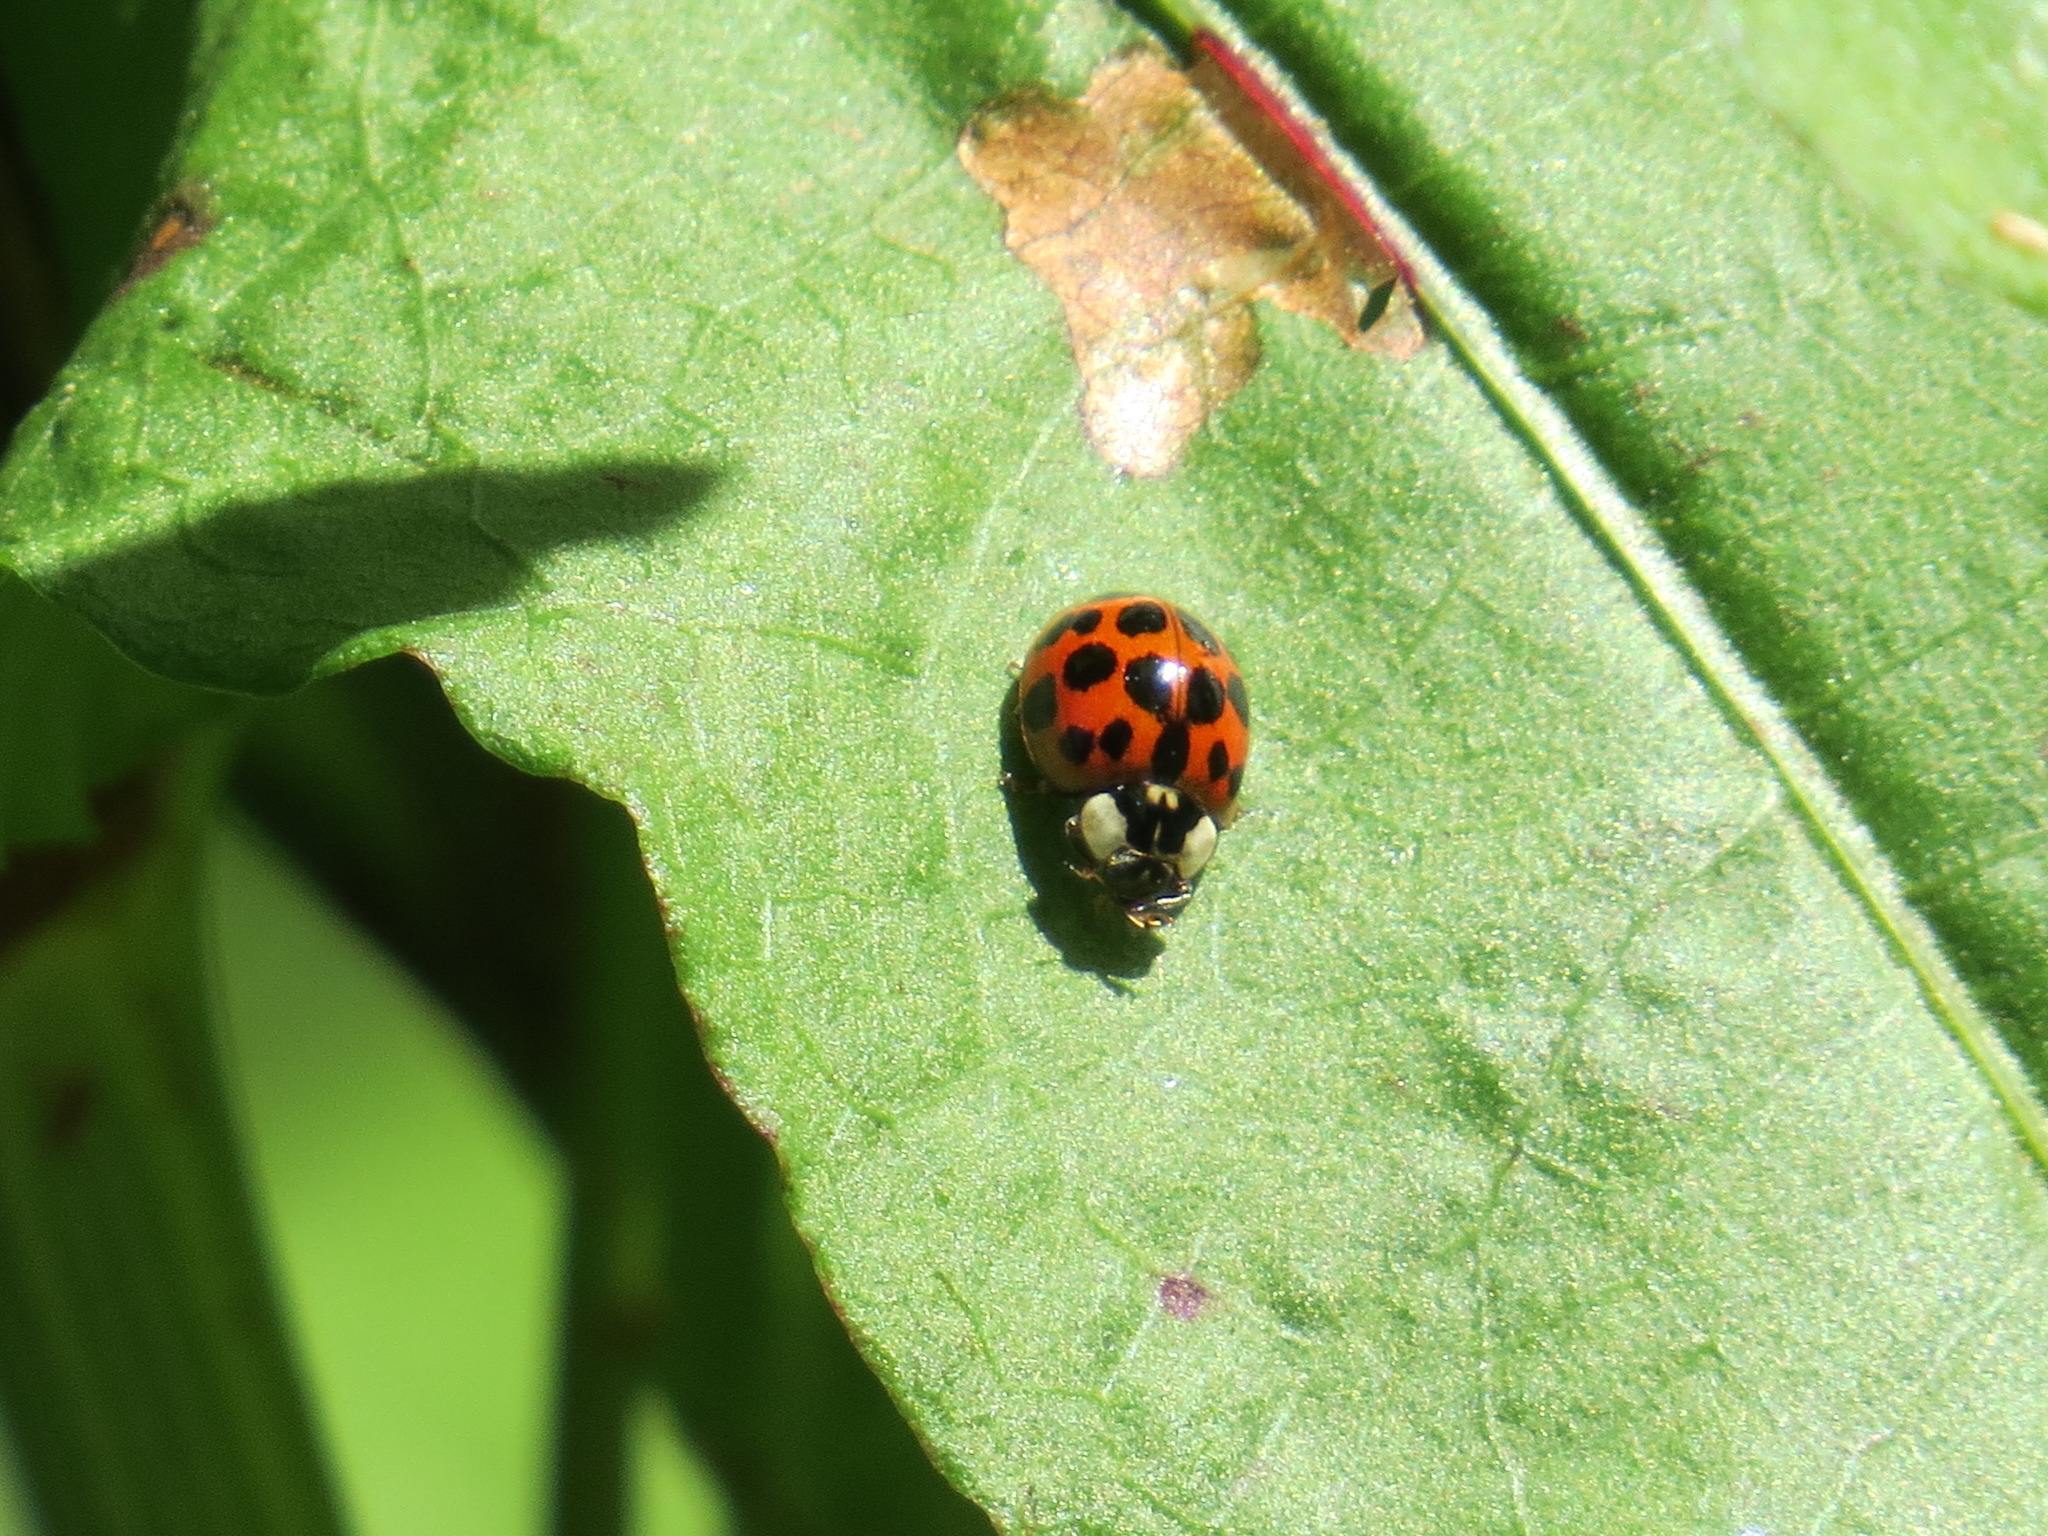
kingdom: Animalia
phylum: Arthropoda
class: Insecta
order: Coleoptera
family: Coccinellidae
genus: Harmonia
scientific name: Harmonia axyridis
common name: Harlequin ladybird
